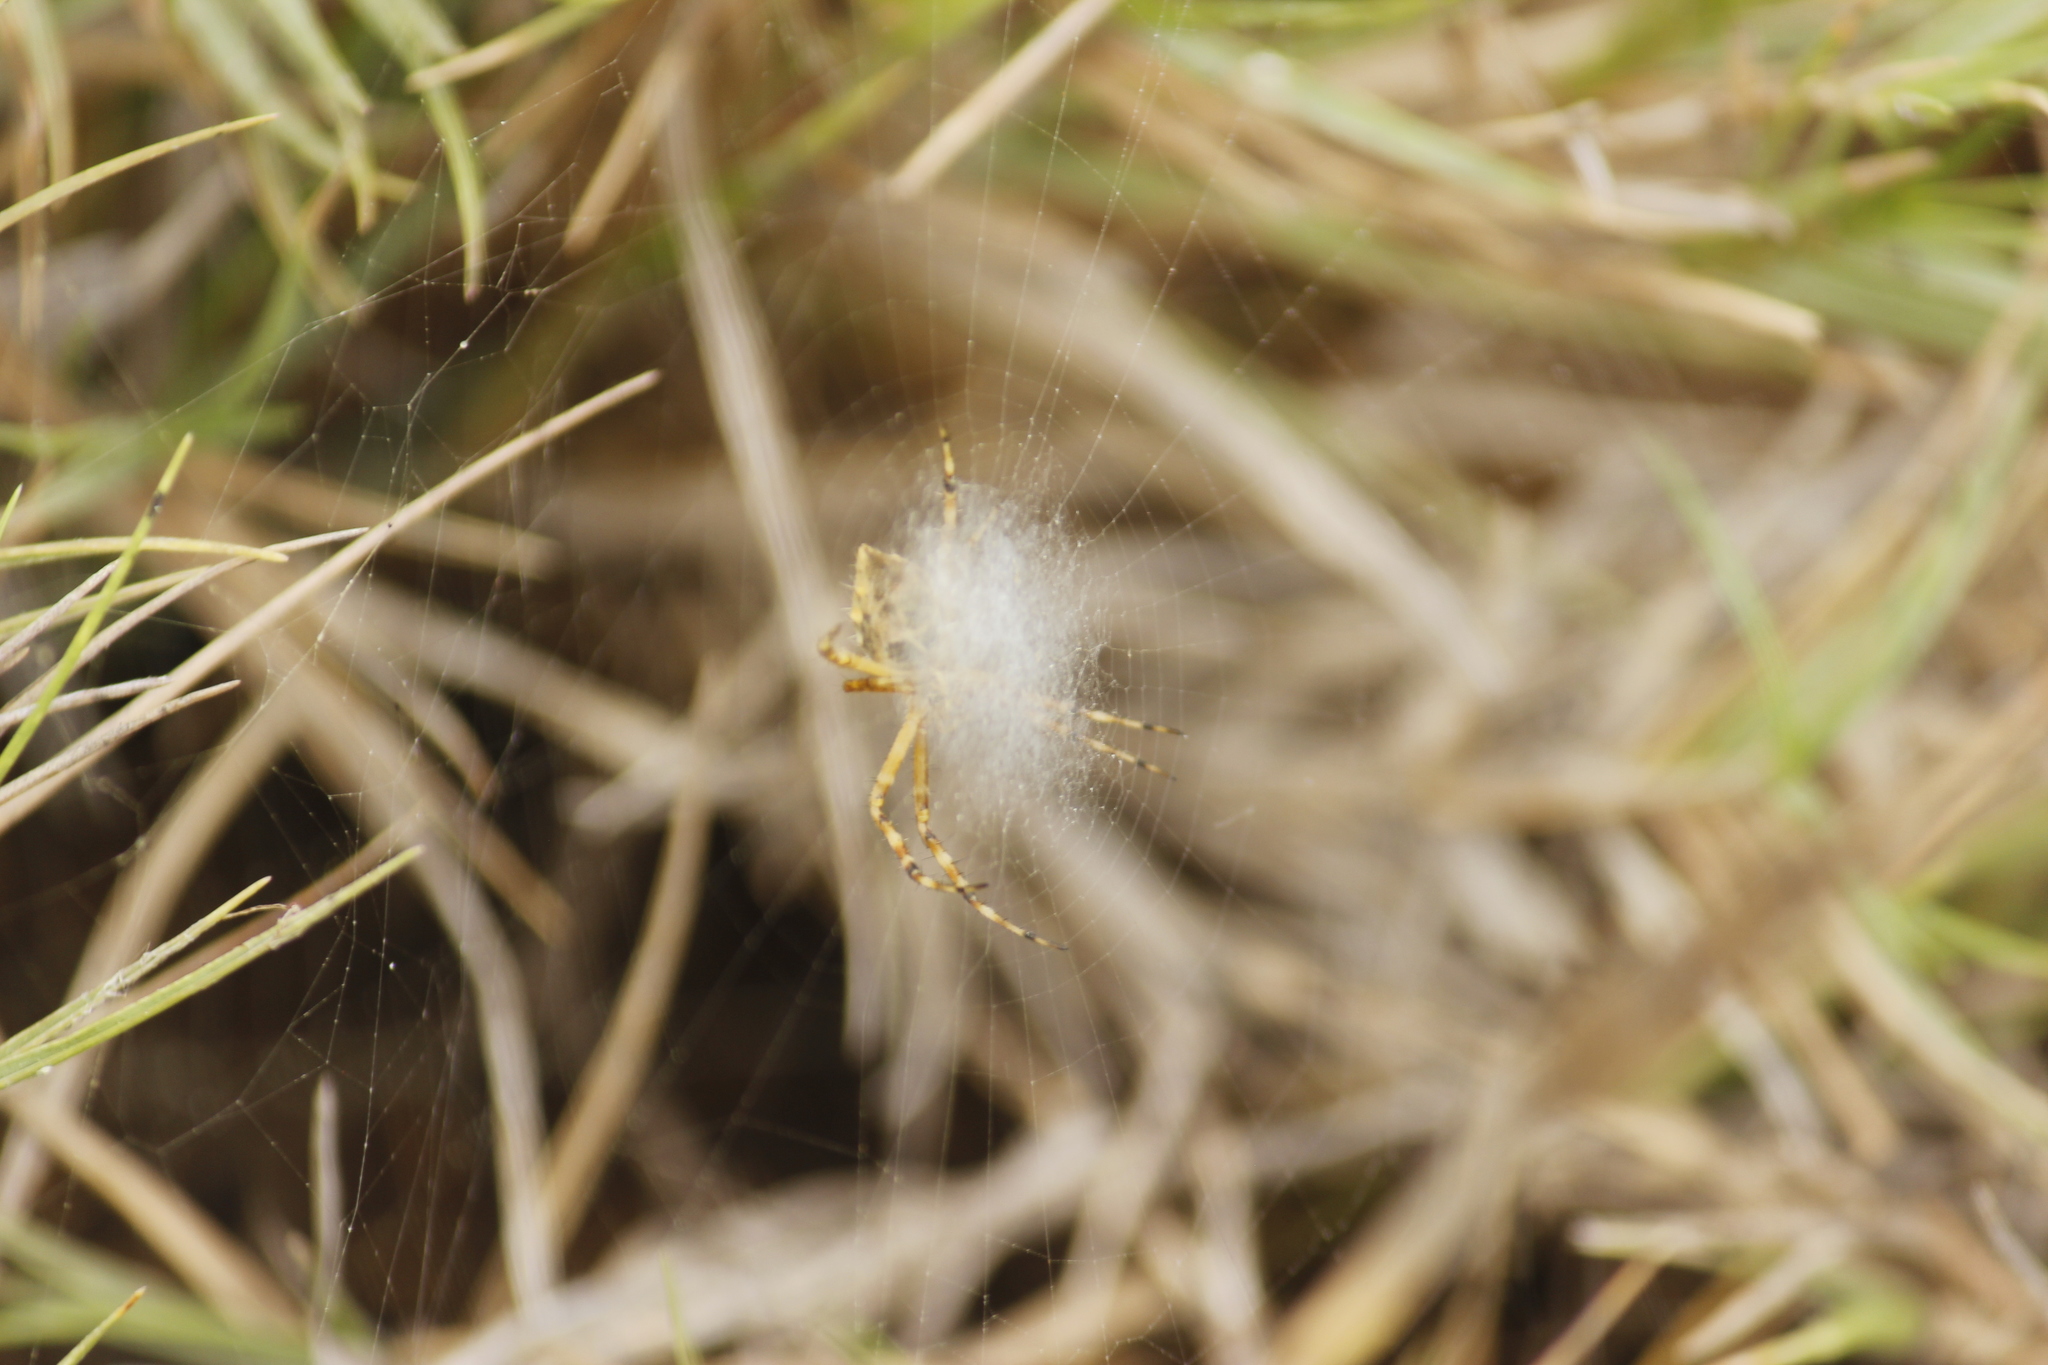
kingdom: Animalia
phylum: Arthropoda
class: Arachnida
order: Araneae
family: Araneidae
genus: Argiope
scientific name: Argiope argentata
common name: Orb weavers
